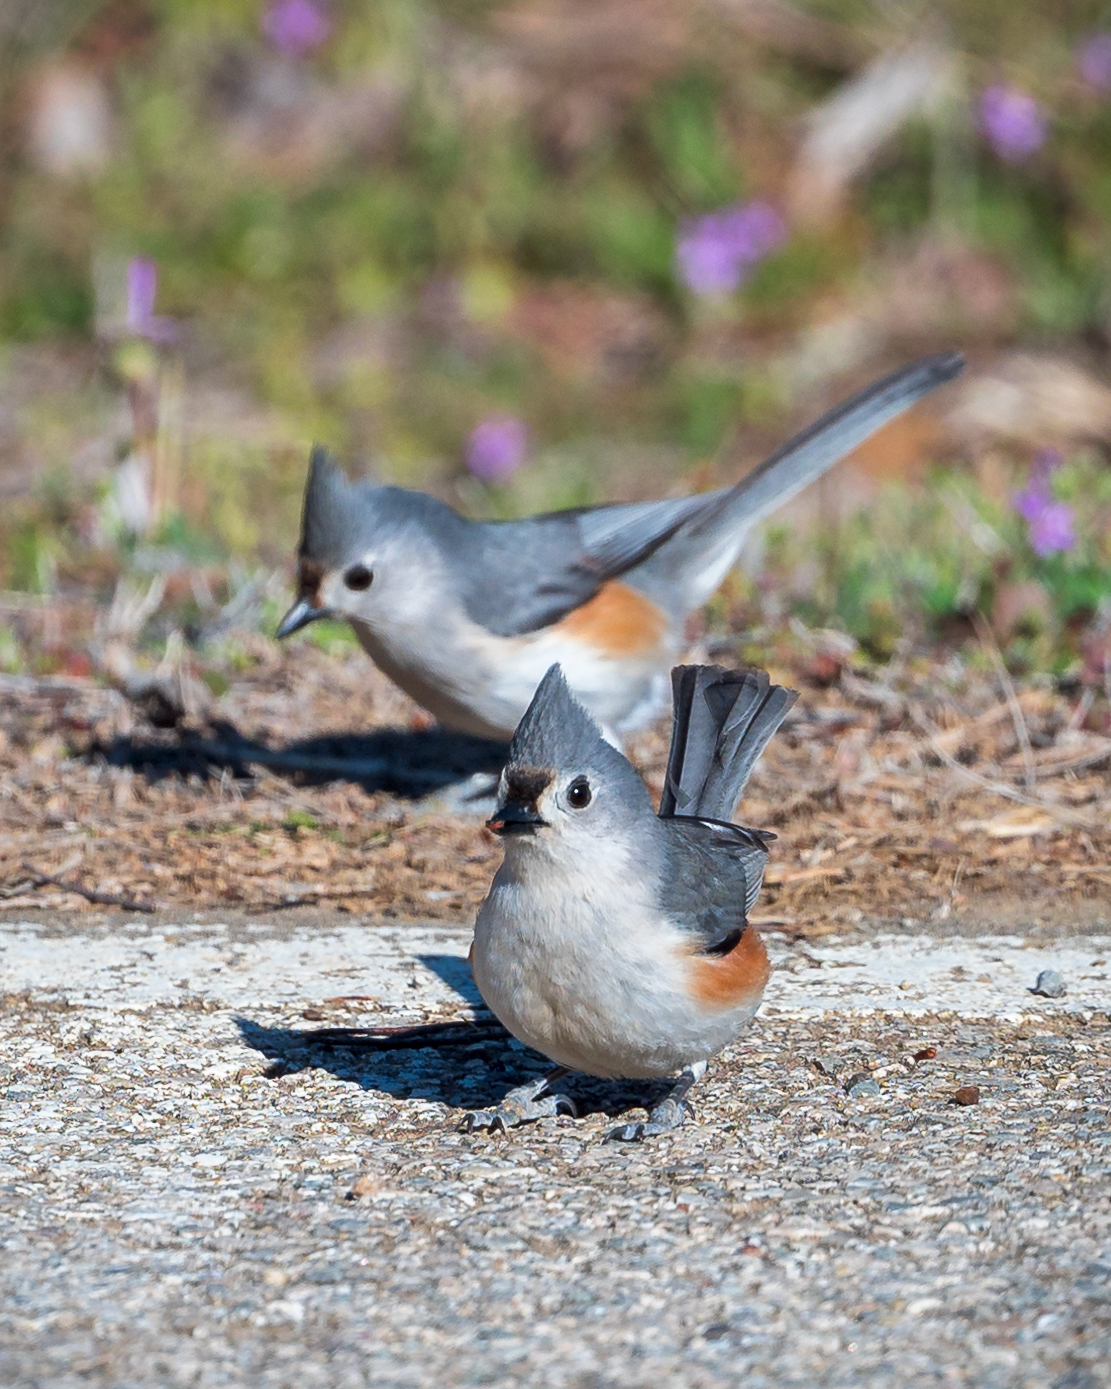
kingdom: Animalia
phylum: Chordata
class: Aves
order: Passeriformes
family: Paridae
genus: Baeolophus
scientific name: Baeolophus bicolor
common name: Tufted titmouse
